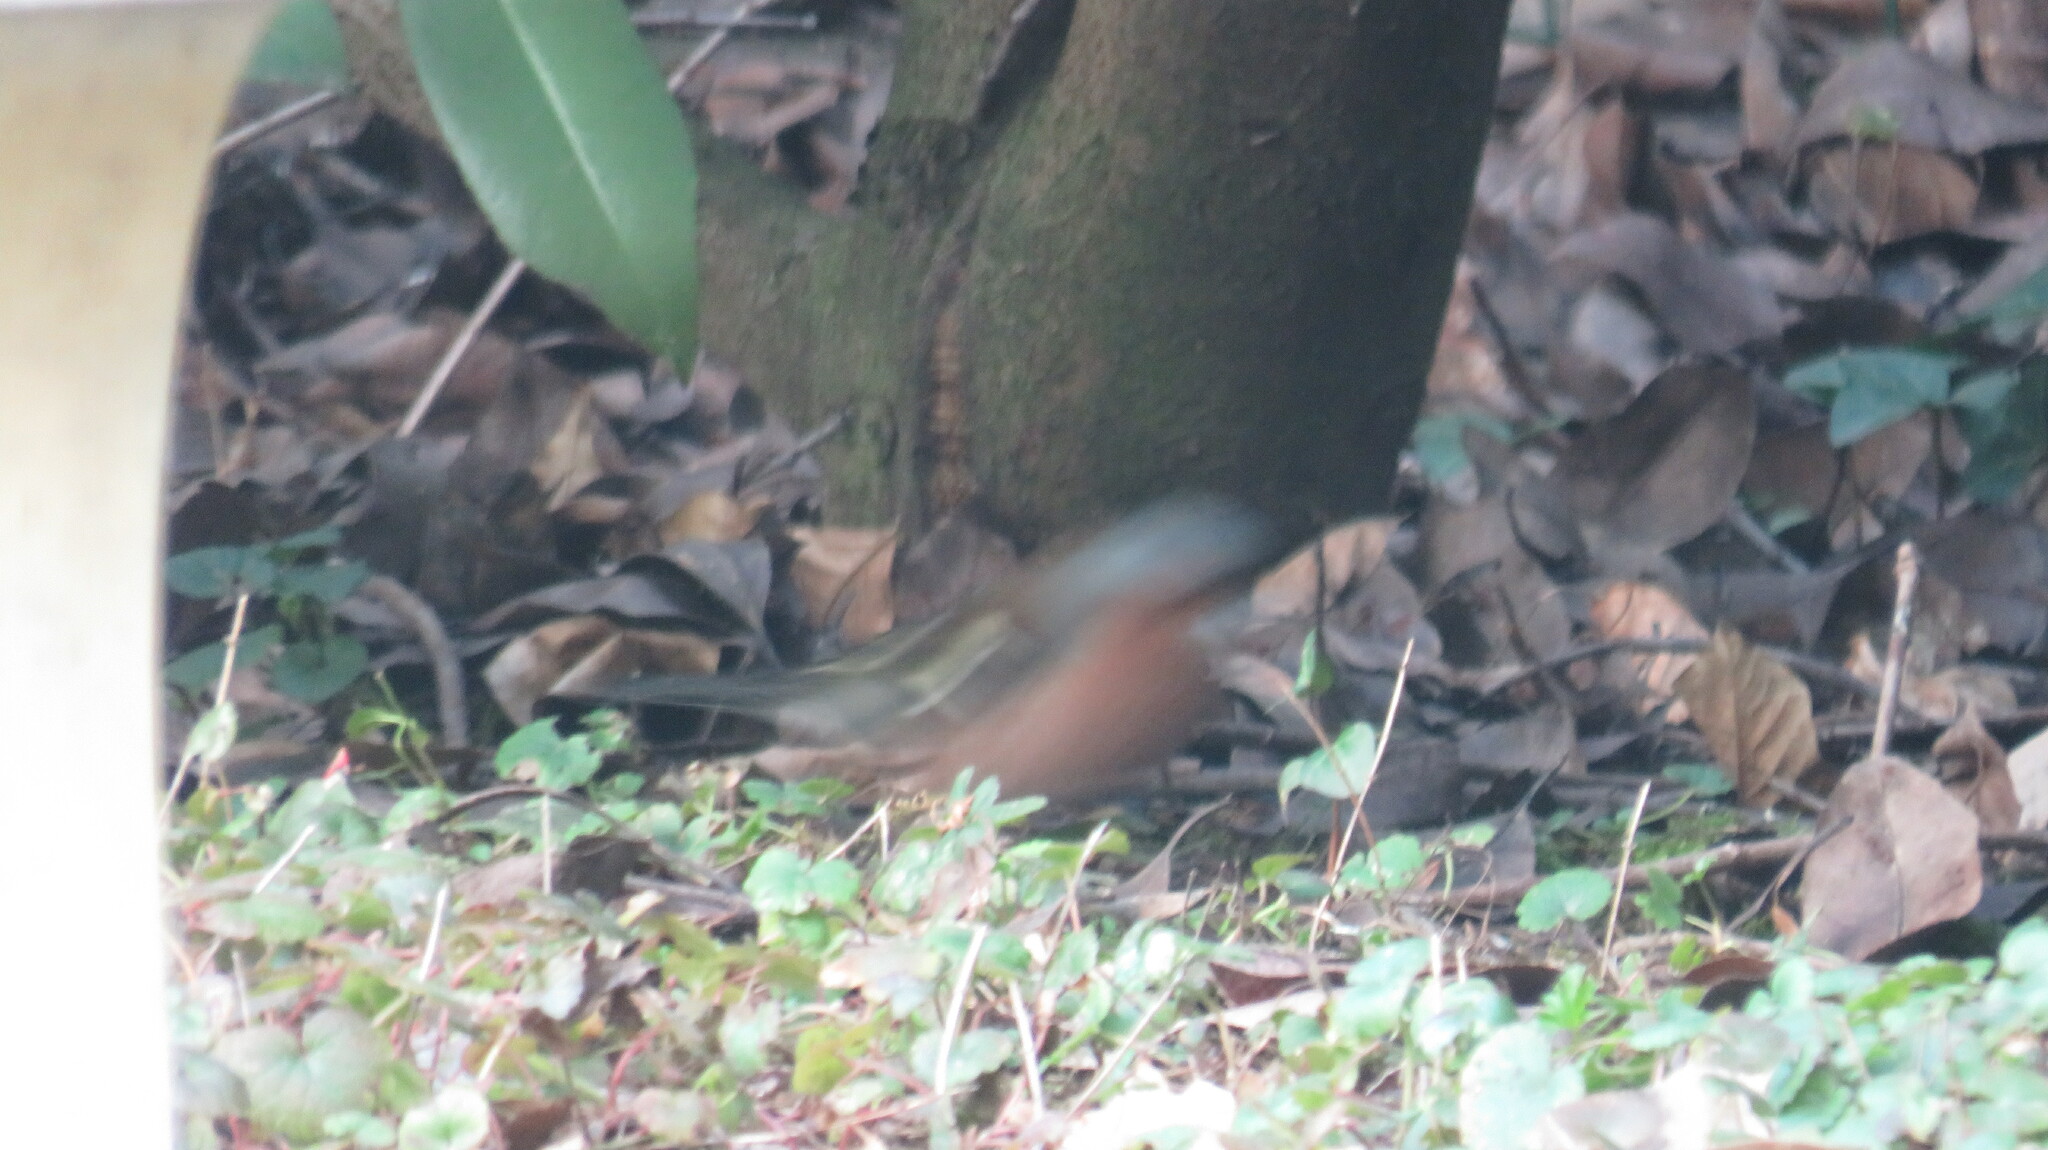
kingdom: Animalia
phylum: Chordata
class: Aves
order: Passeriformes
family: Fringillidae
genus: Fringilla
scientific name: Fringilla coelebs
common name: Common chaffinch
